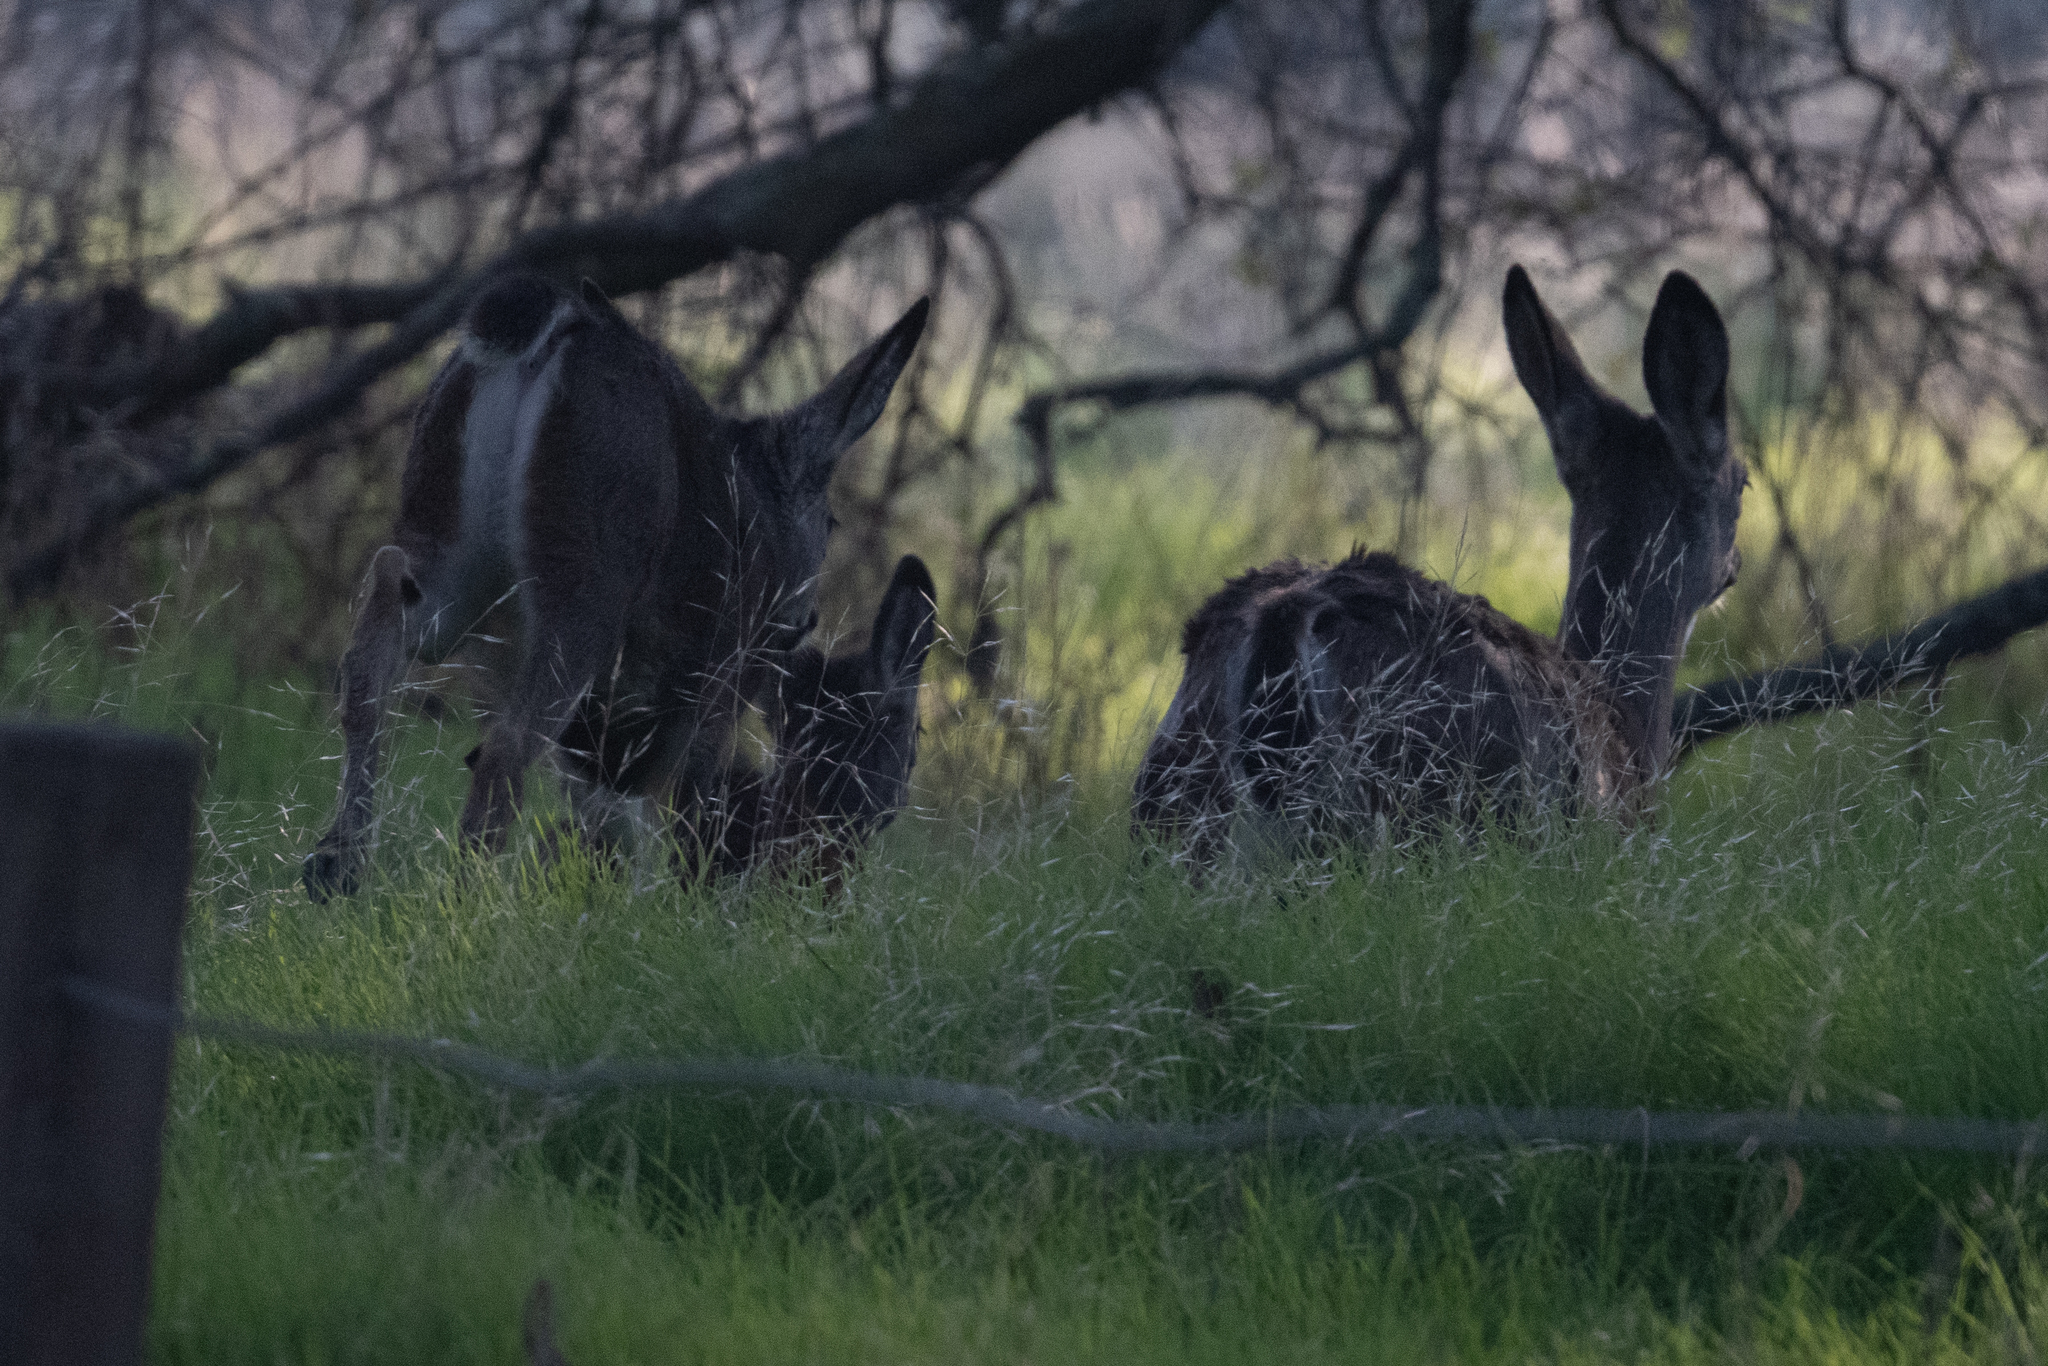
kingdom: Animalia
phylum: Chordata
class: Mammalia
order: Artiodactyla
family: Cervidae
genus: Odocoileus
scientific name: Odocoileus hemionus
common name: Mule deer
